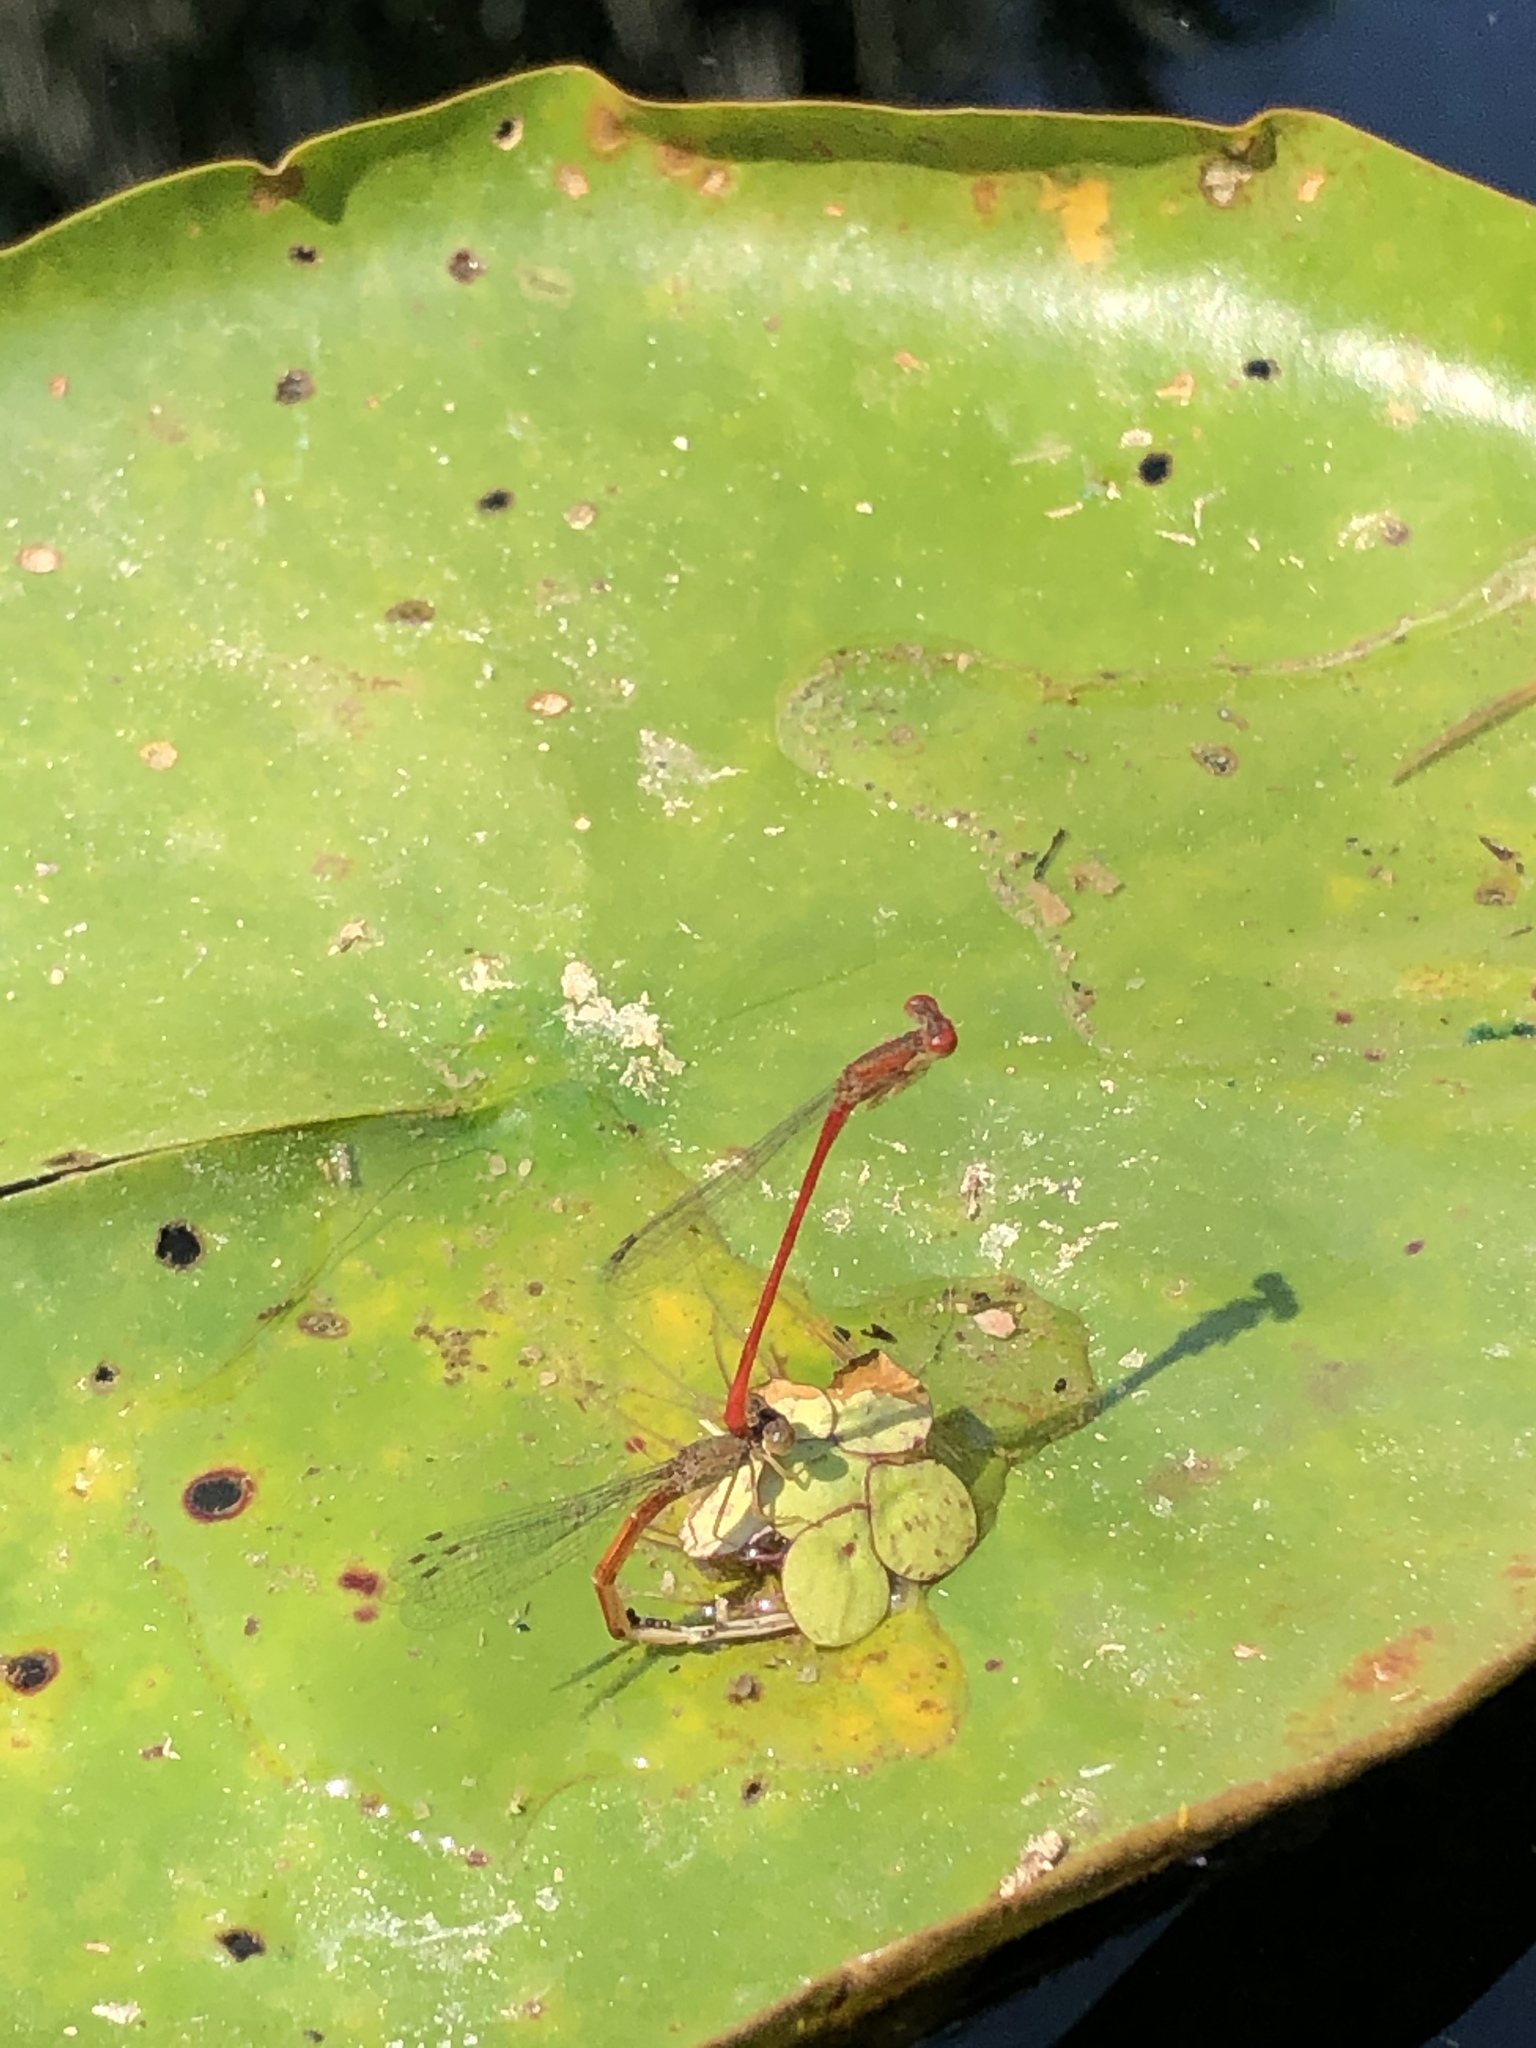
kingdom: Animalia
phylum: Arthropoda
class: Insecta
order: Odonata
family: Coenagrionidae
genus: Telebasis
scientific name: Telebasis salva
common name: Desert firetail
